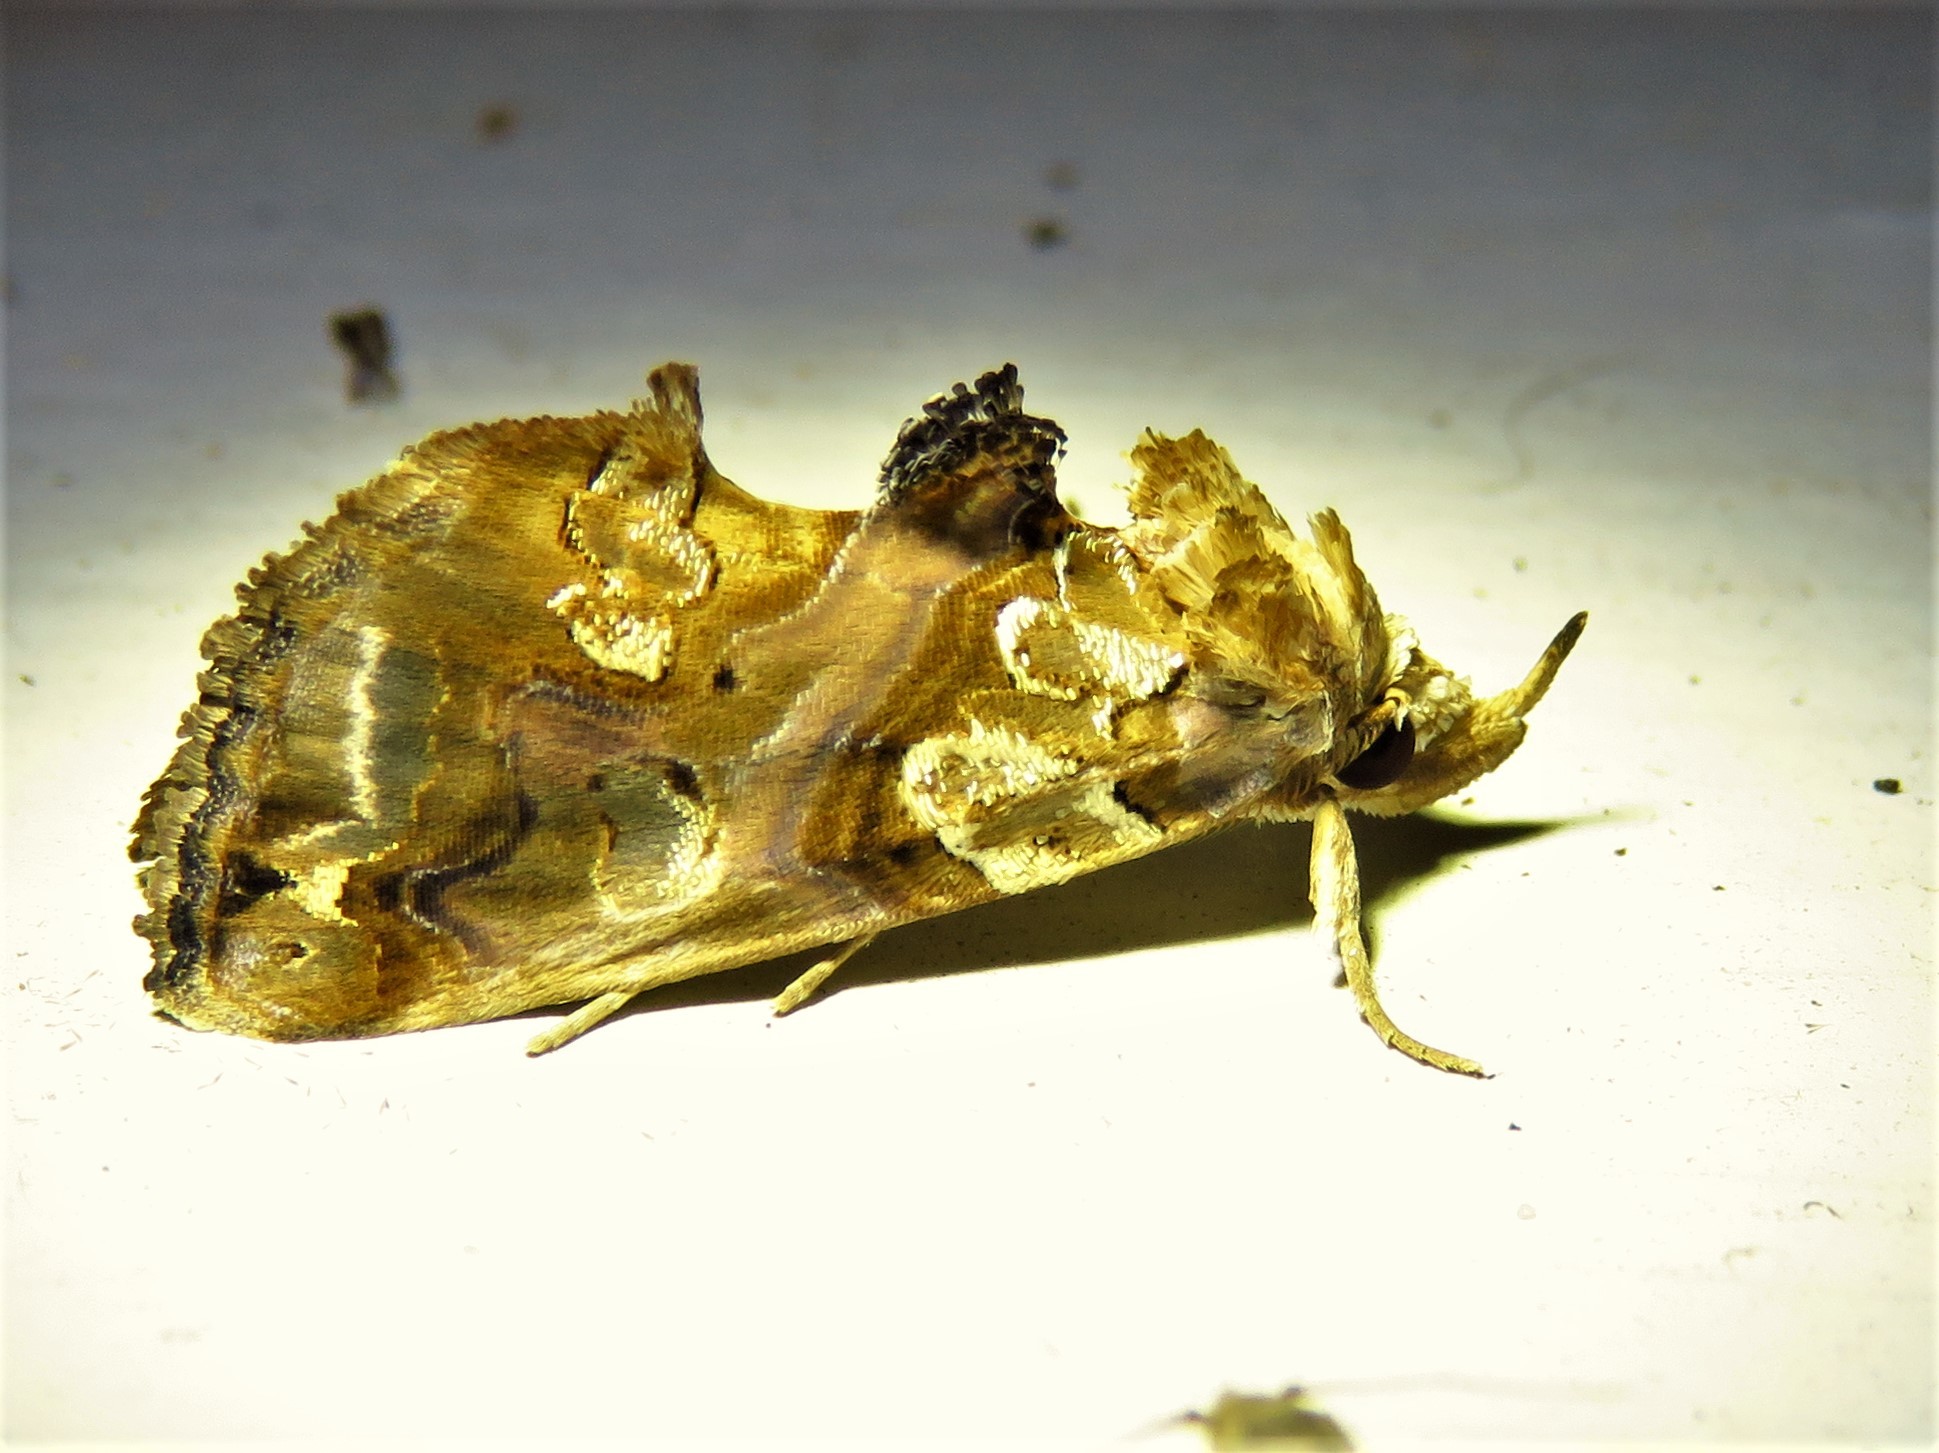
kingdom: Animalia
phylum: Arthropoda
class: Insecta
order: Lepidoptera
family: Erebidae
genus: Plusiodonta
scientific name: Plusiodonta compressipalpis
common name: Moonseed moth
